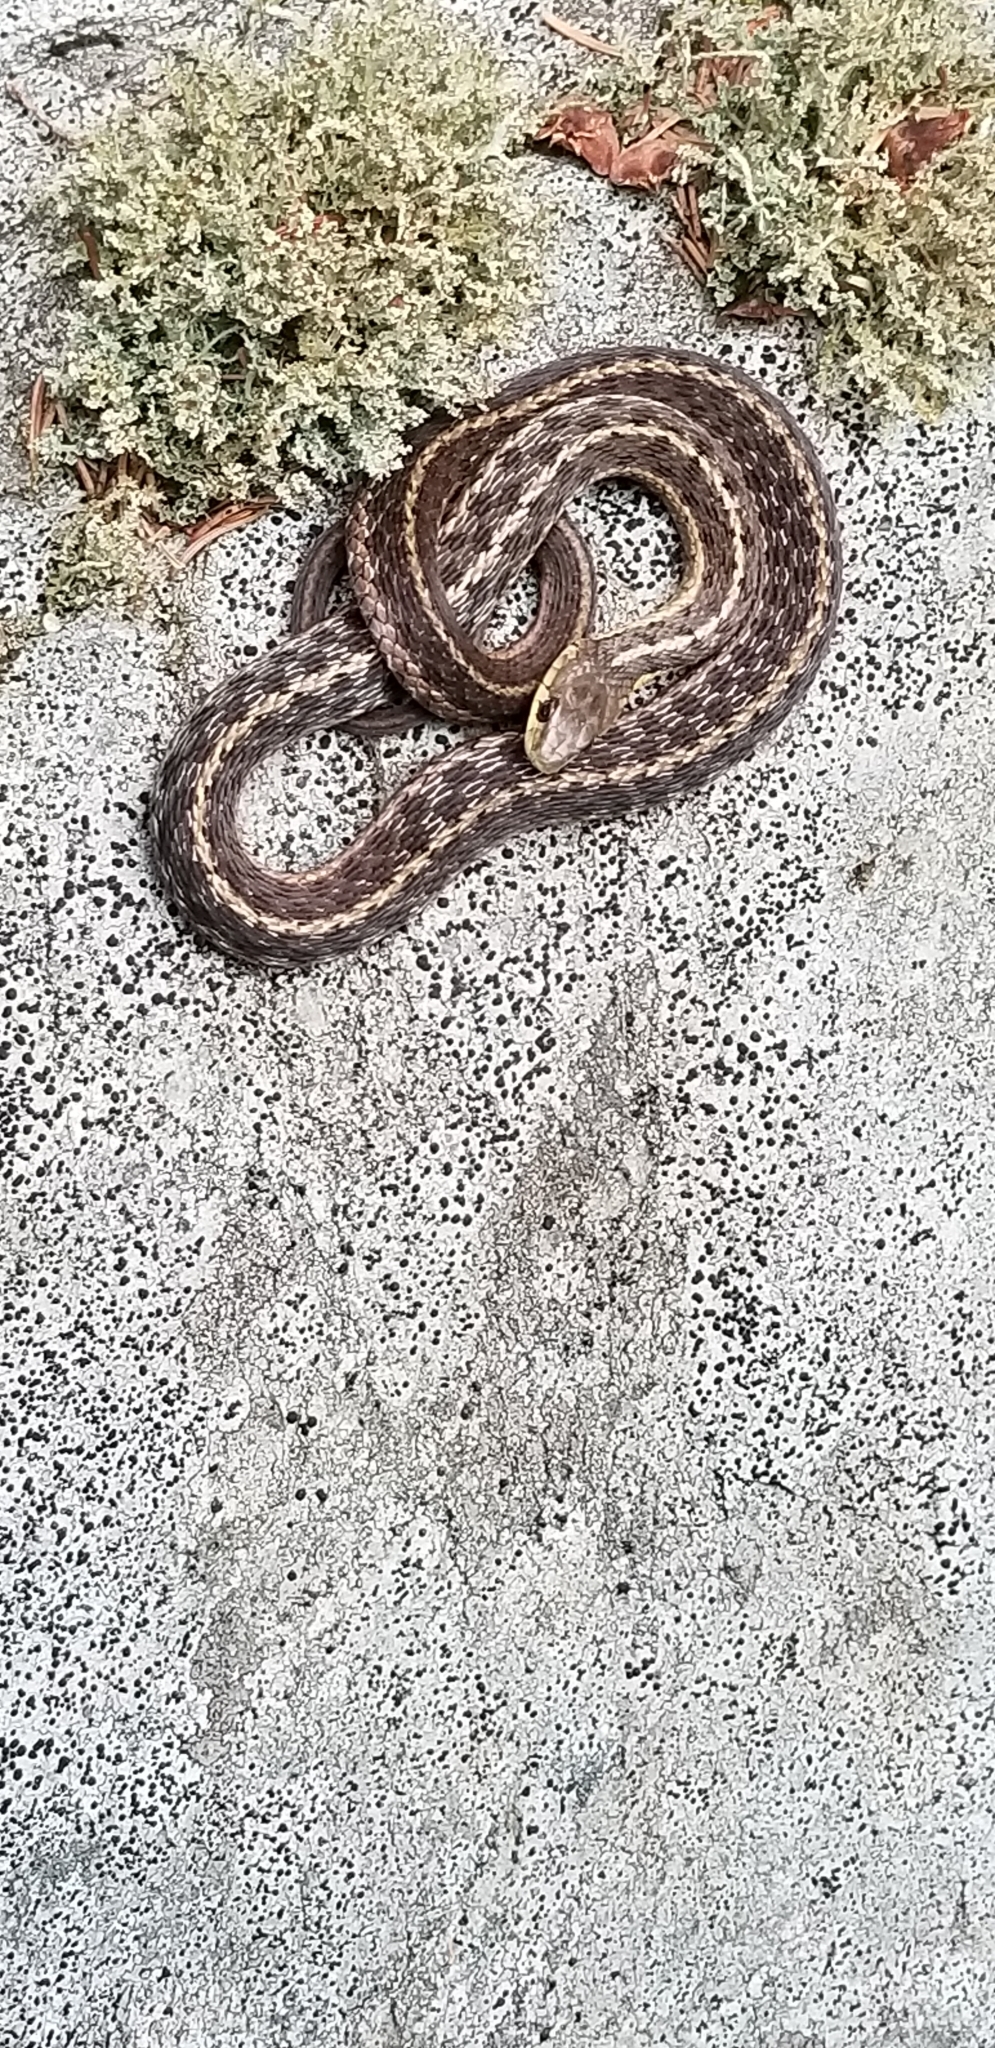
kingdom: Animalia
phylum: Chordata
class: Squamata
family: Colubridae
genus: Thamnophis
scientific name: Thamnophis sirtalis
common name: Common garter snake
